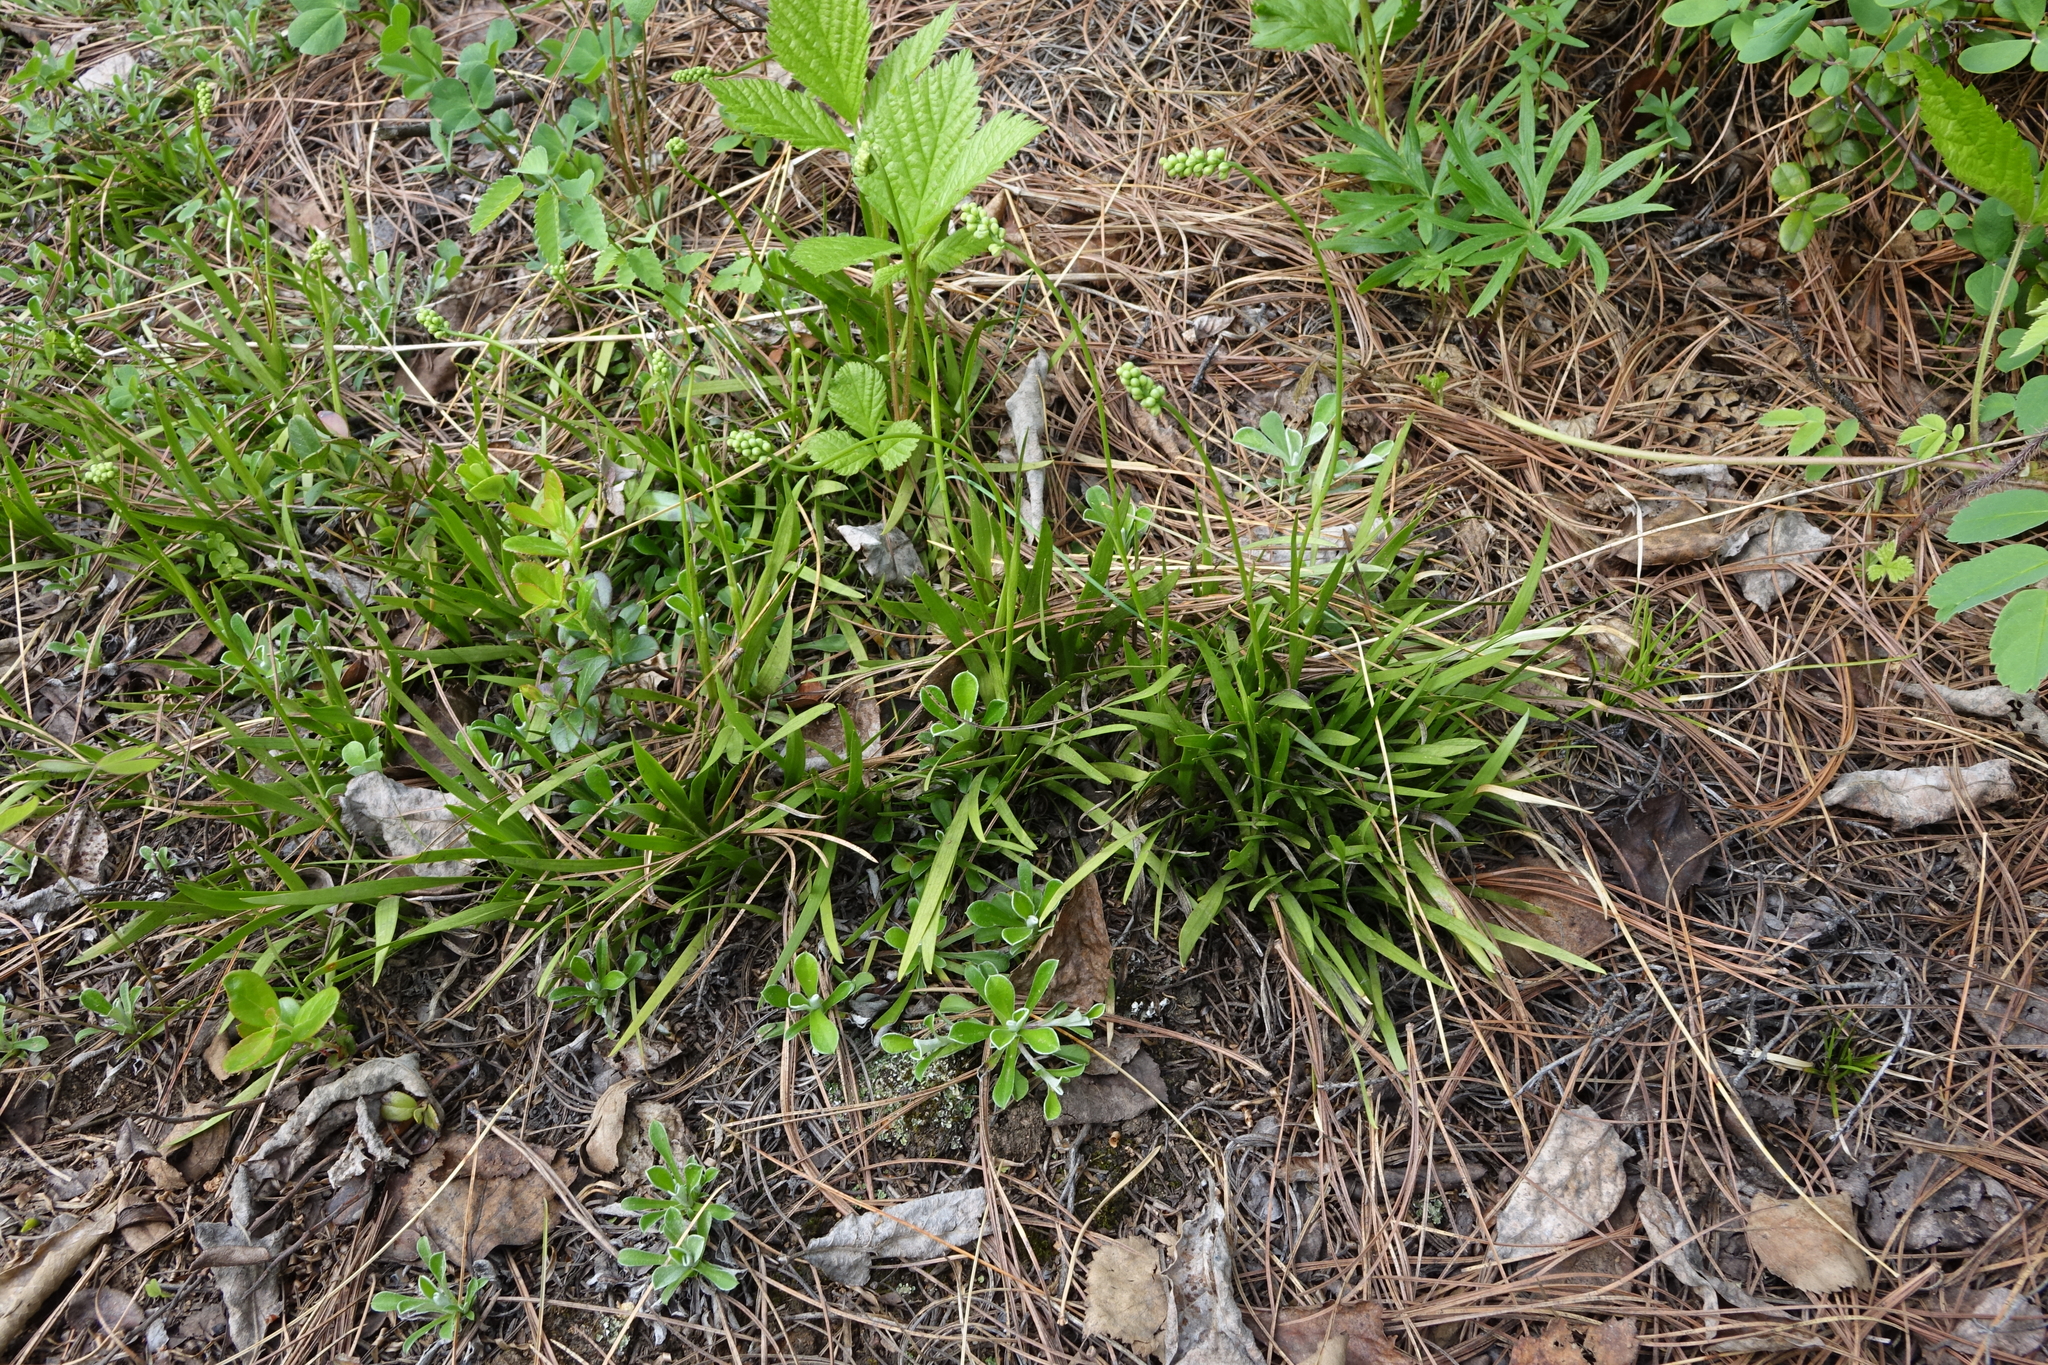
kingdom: Plantae
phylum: Tracheophyta
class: Liliopsida
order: Alismatales
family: Tofieldiaceae
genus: Tofieldia
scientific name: Tofieldia cernua
